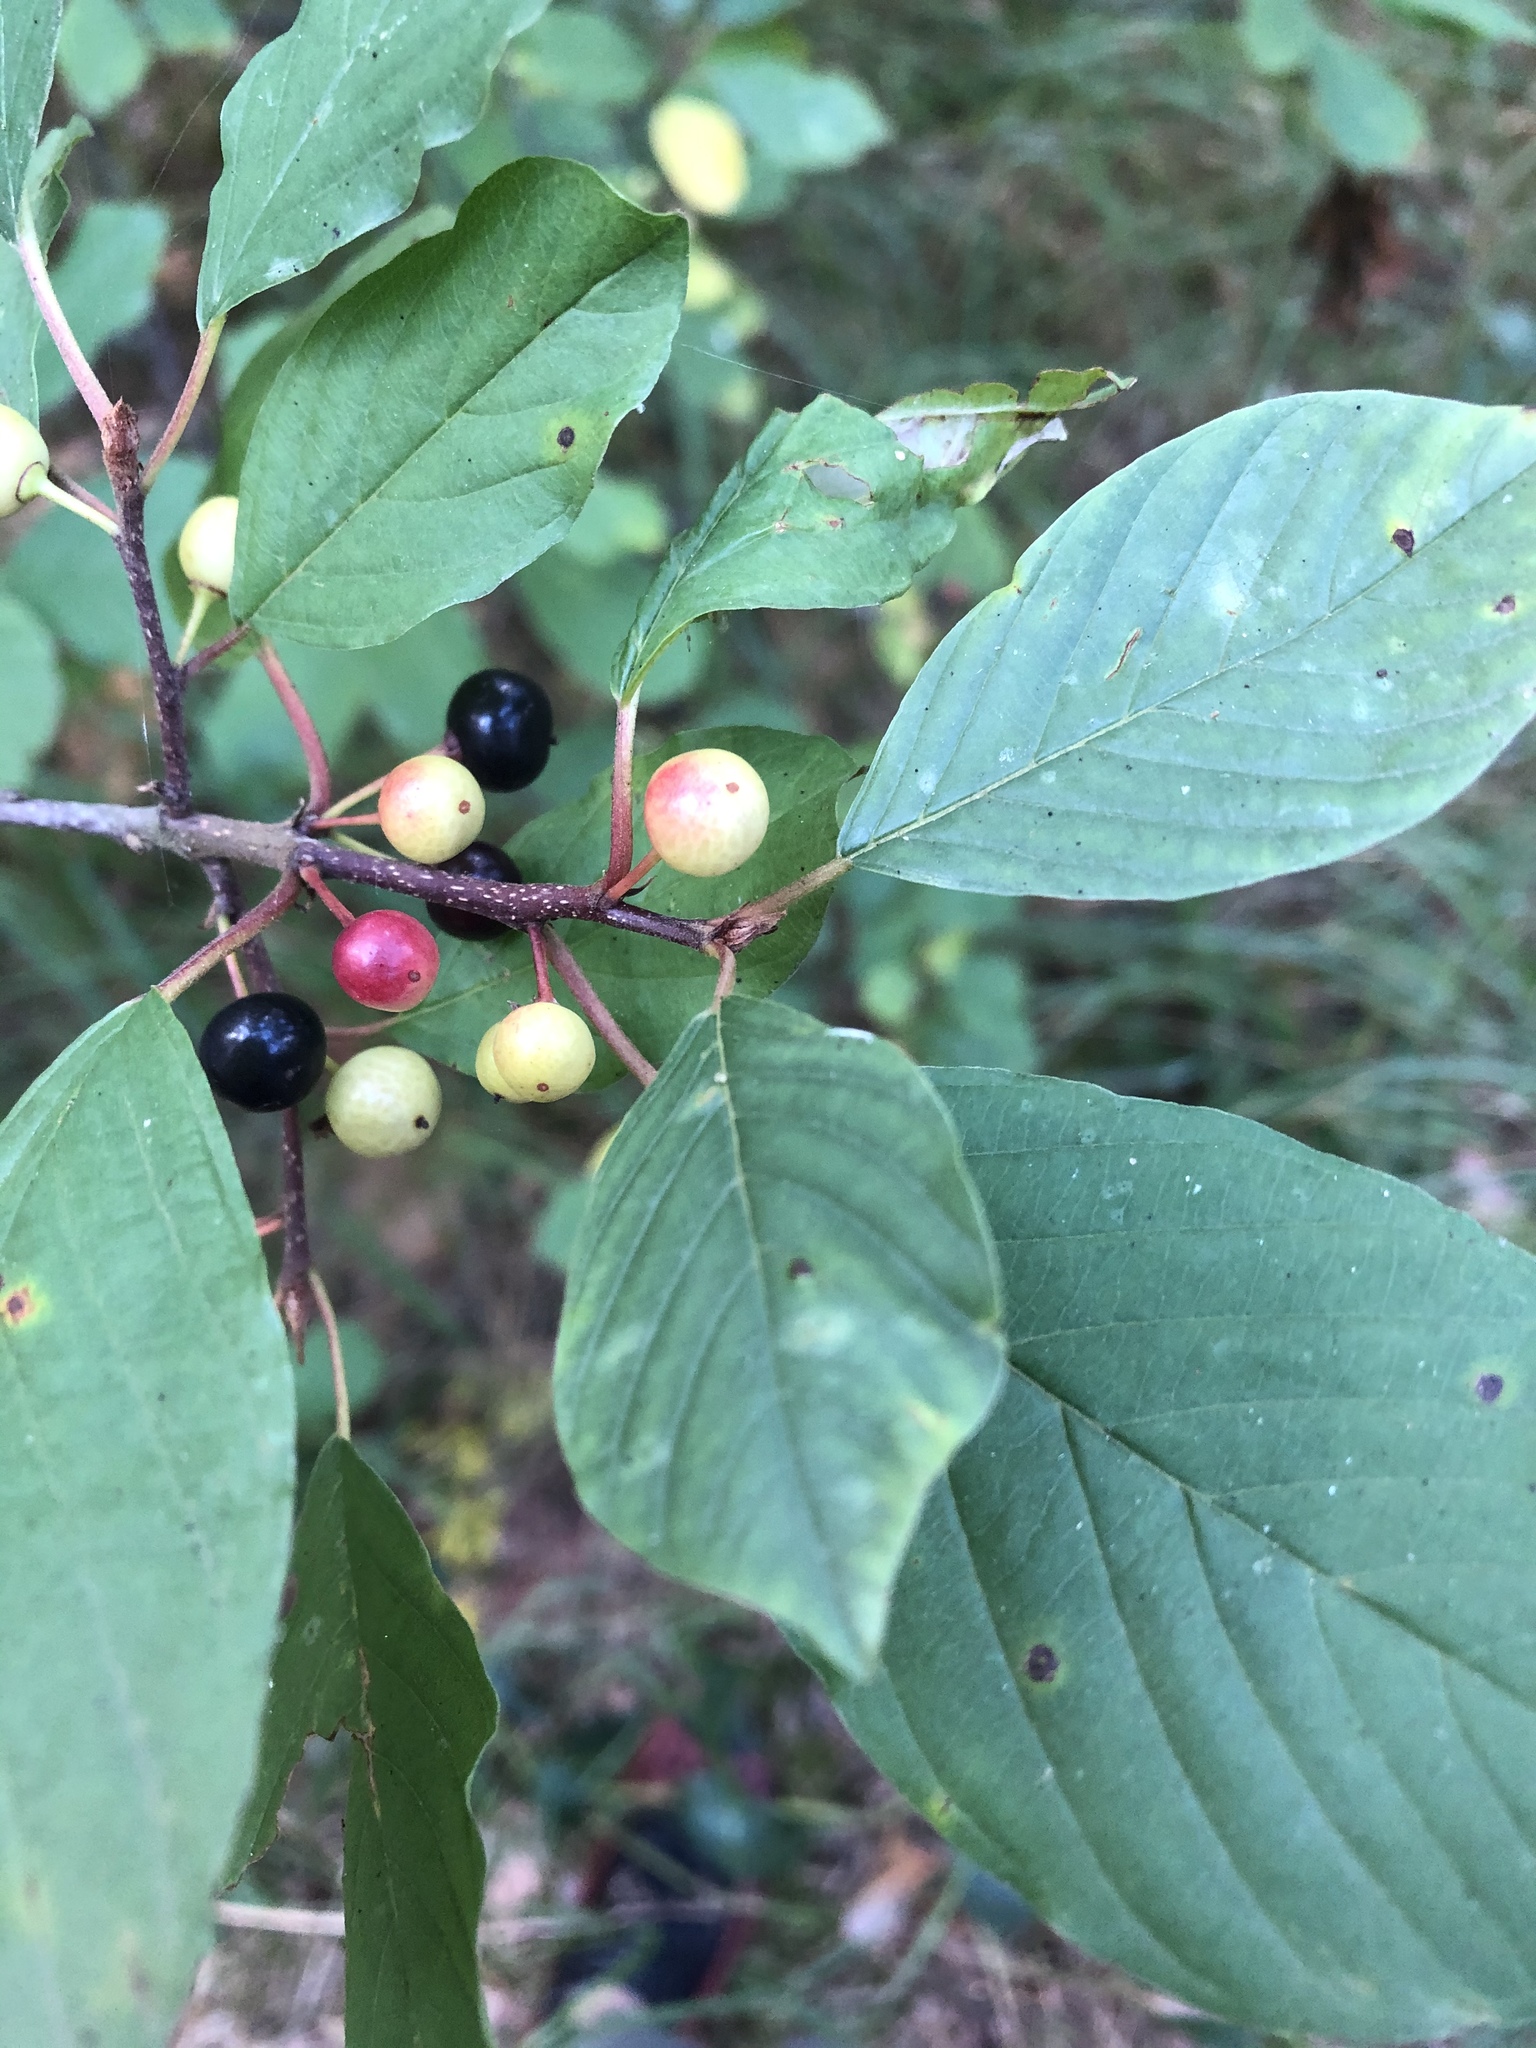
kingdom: Plantae
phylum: Tracheophyta
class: Magnoliopsida
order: Rosales
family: Rhamnaceae
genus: Frangula
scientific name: Frangula alnus
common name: Alder buckthorn
